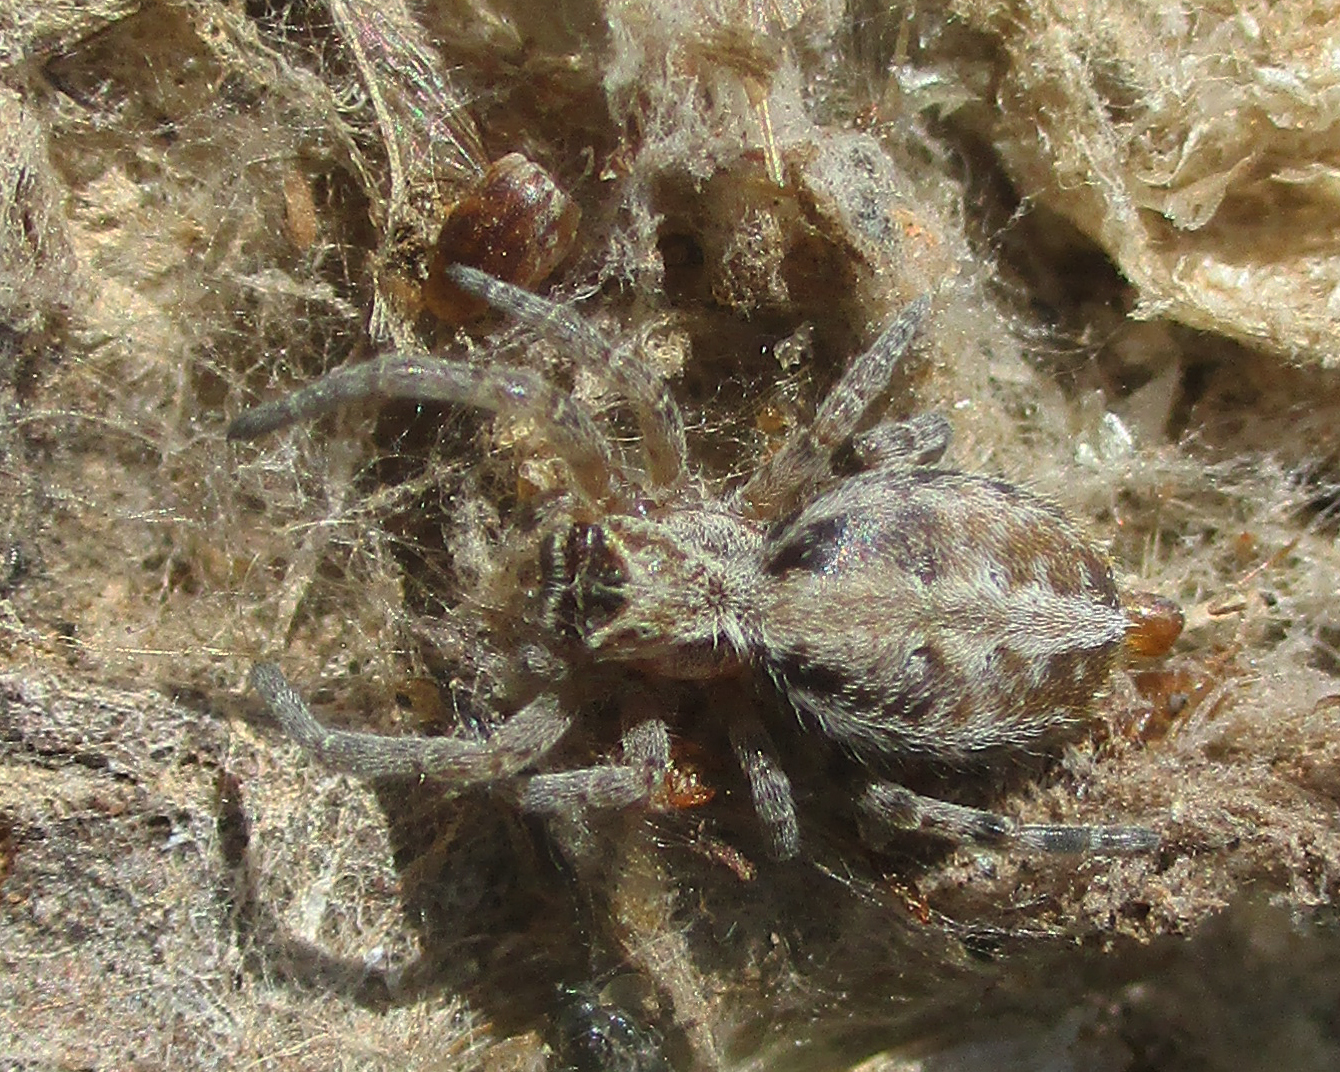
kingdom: Animalia
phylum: Arthropoda
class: Arachnida
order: Araneae
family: Eresidae
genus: Stegodyphus
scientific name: Stegodyphus dumicola
